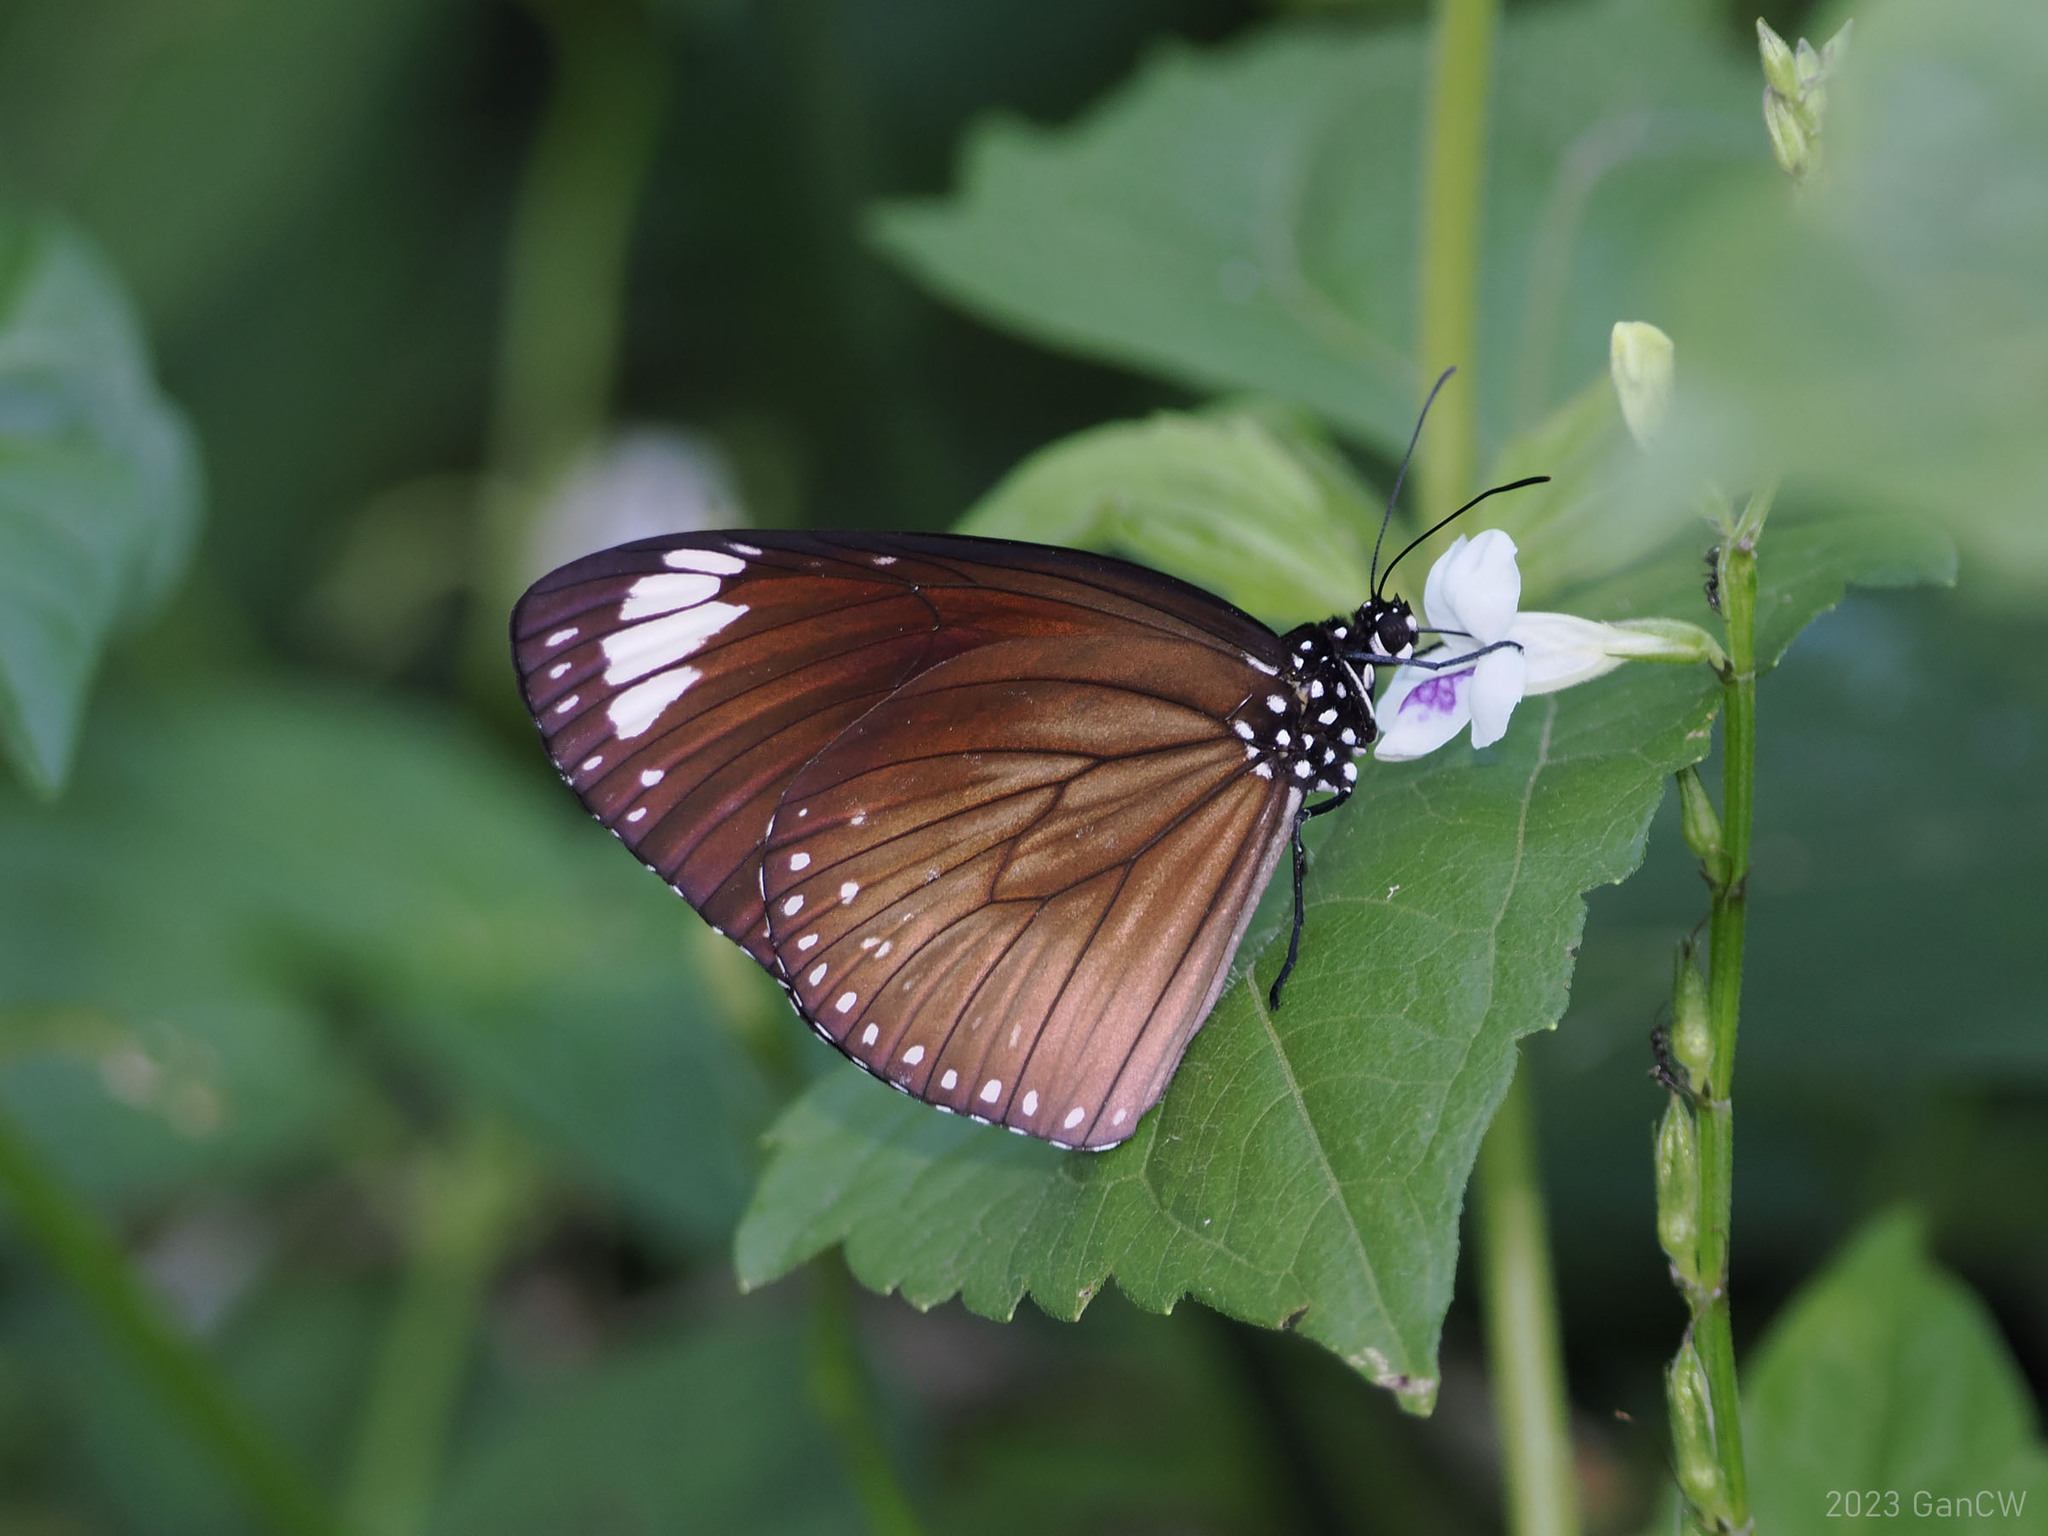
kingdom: Animalia
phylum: Arthropoda
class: Insecta
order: Lepidoptera
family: Nymphalidae
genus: Euploea
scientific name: Euploea tulliolus
